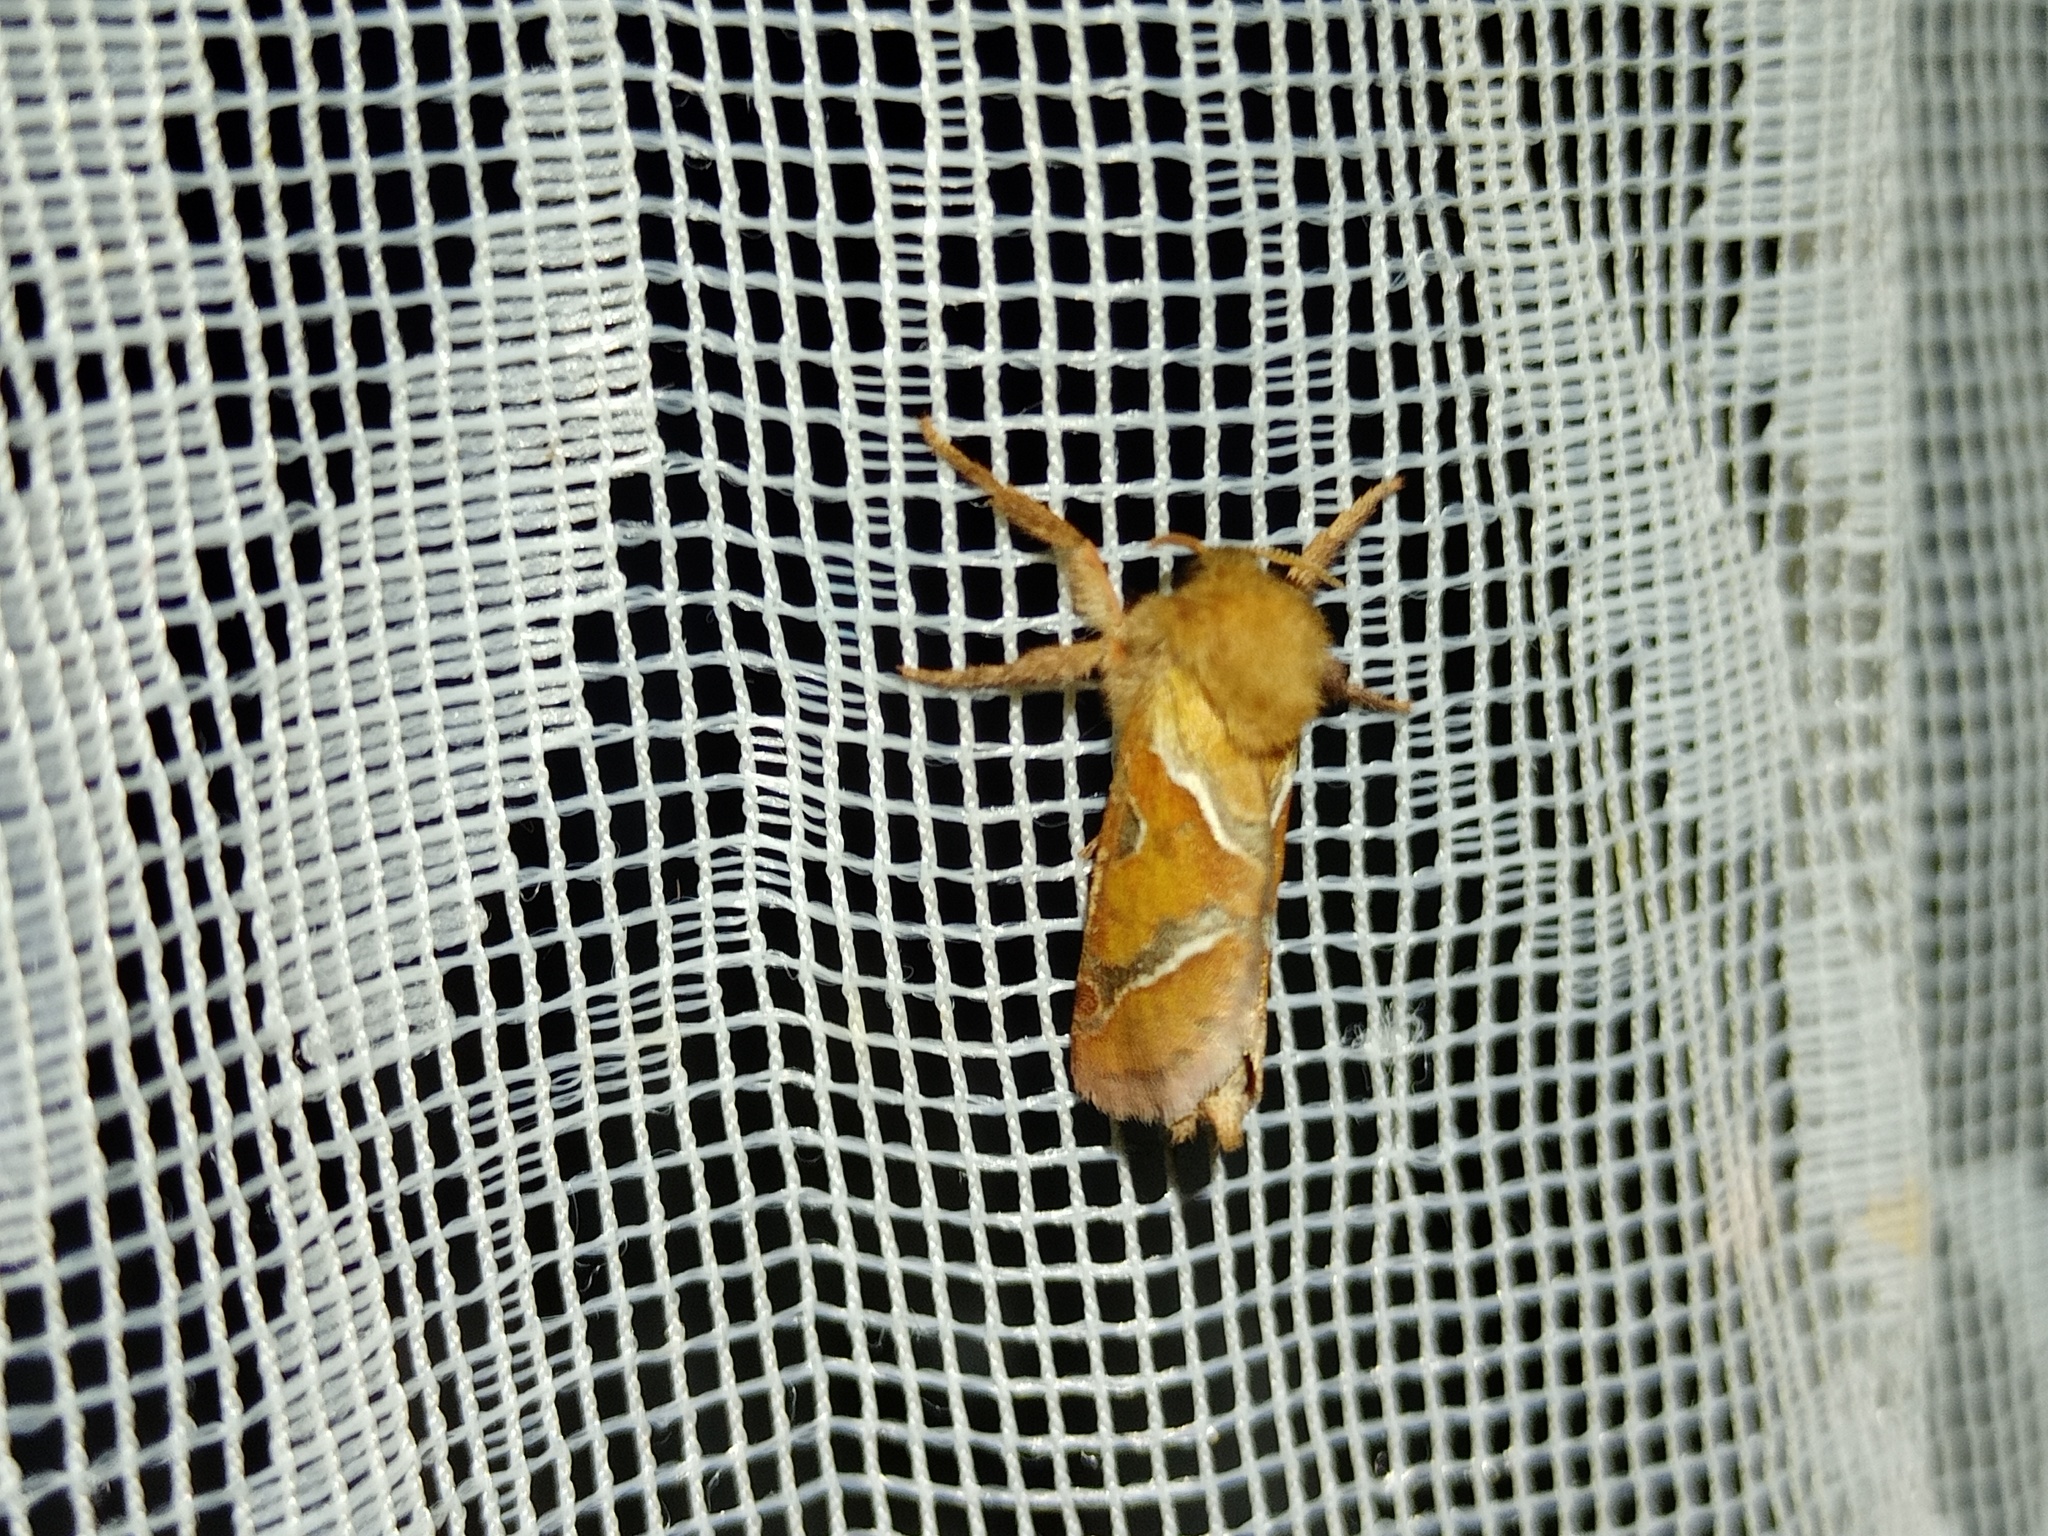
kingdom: Animalia
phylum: Arthropoda
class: Insecta
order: Lepidoptera
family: Hepialidae
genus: Triodia
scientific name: Triodia sylvina
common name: Orange swift
